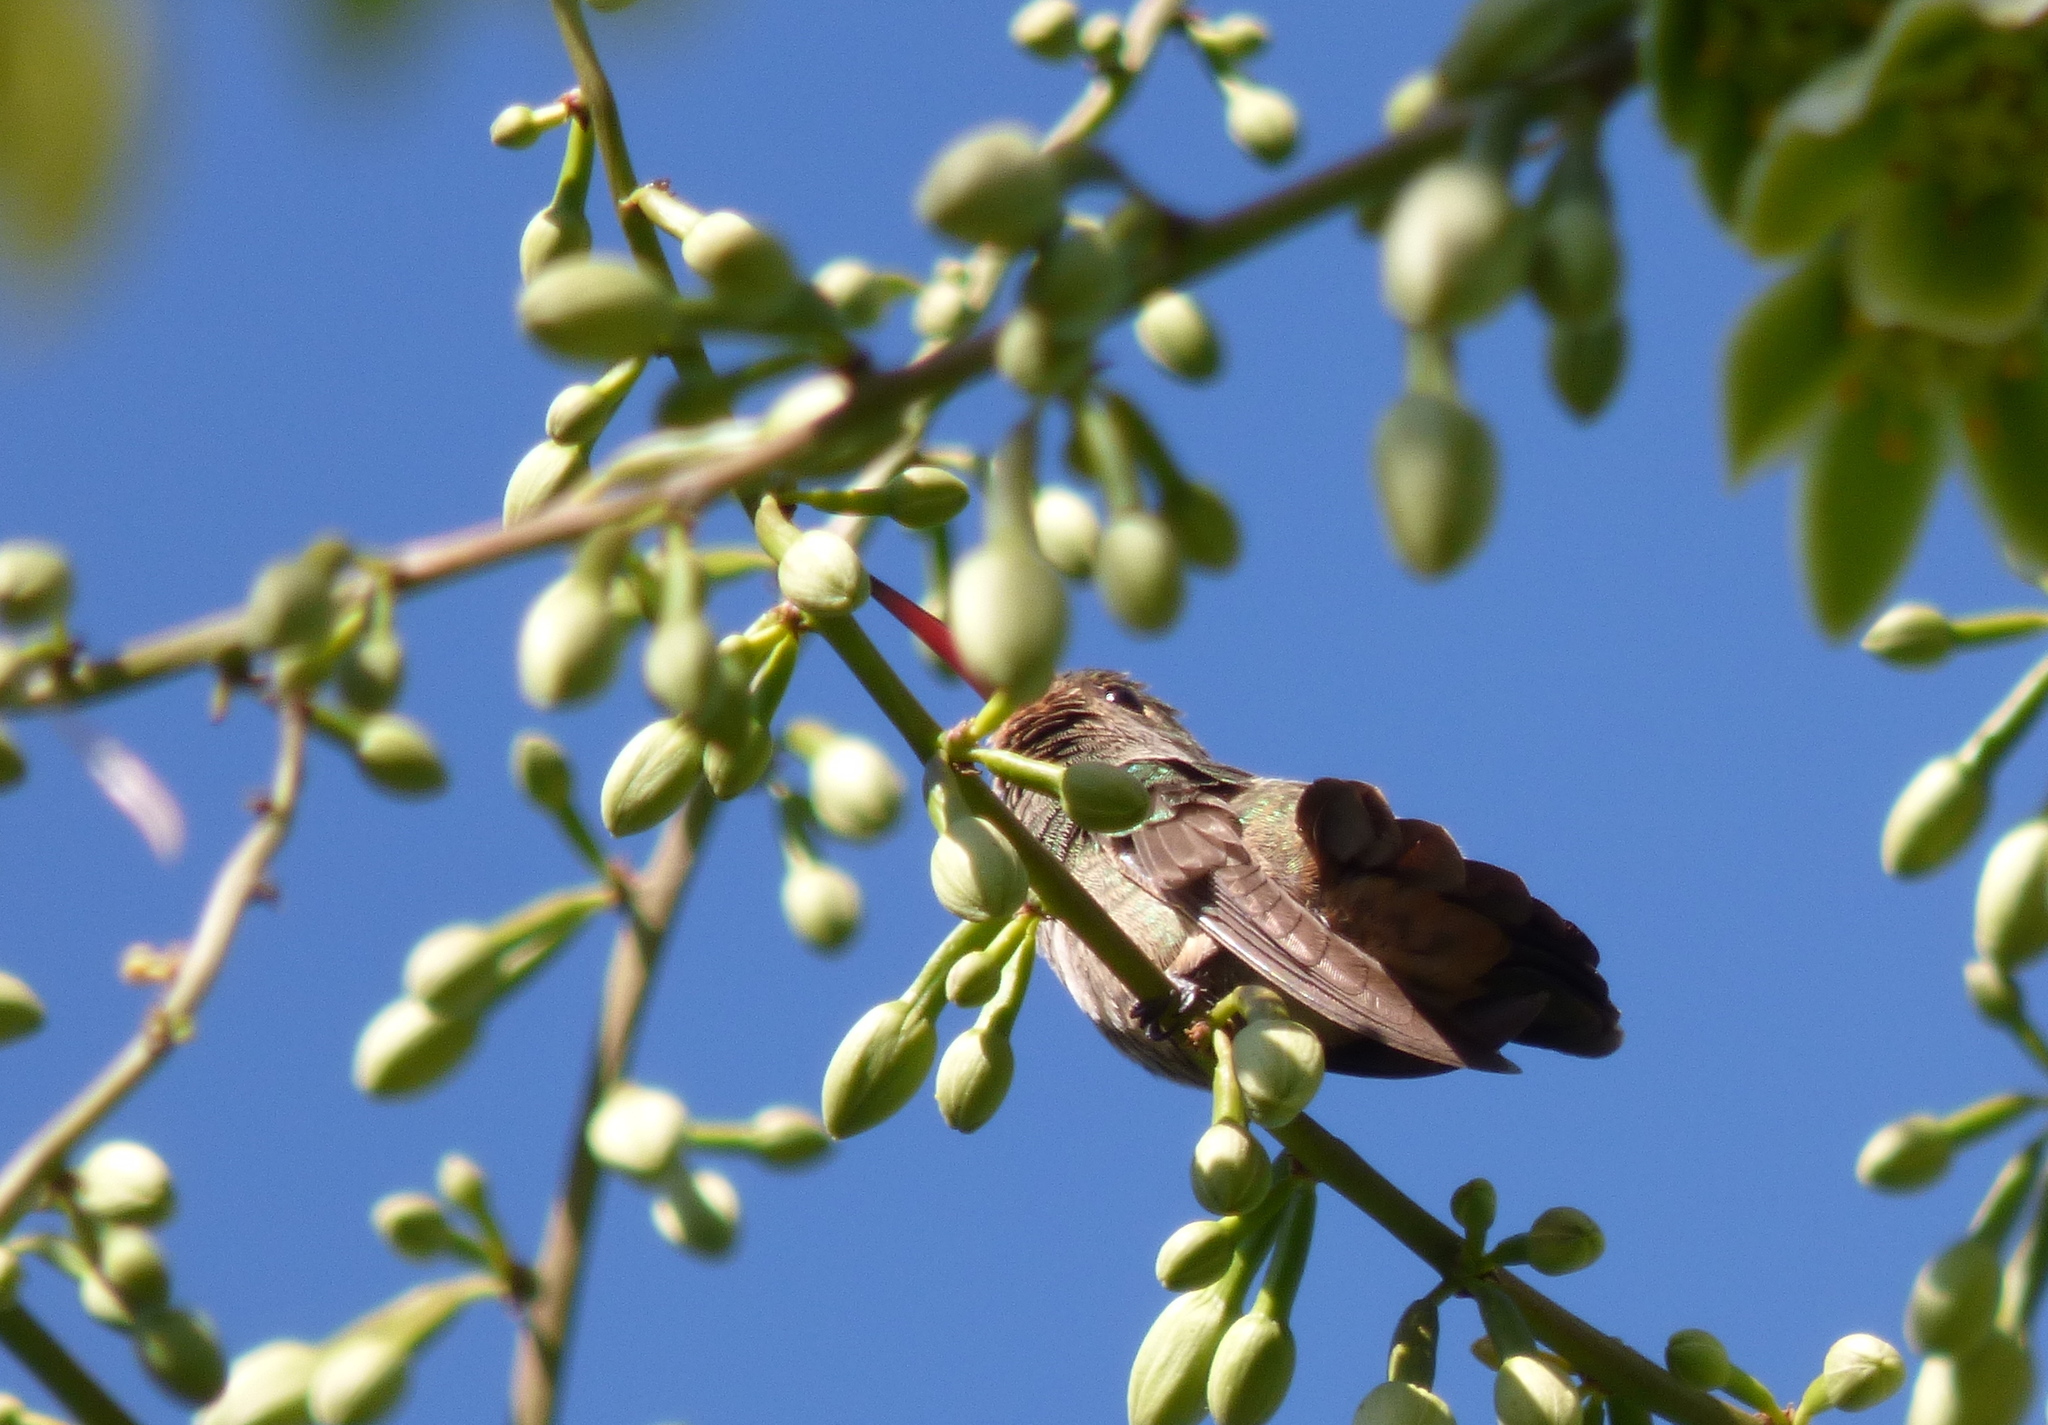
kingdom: Animalia
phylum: Chordata
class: Aves
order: Apodiformes
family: Trochilidae
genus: Hylocharis
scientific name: Hylocharis chrysura
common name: Gilded sapphire
